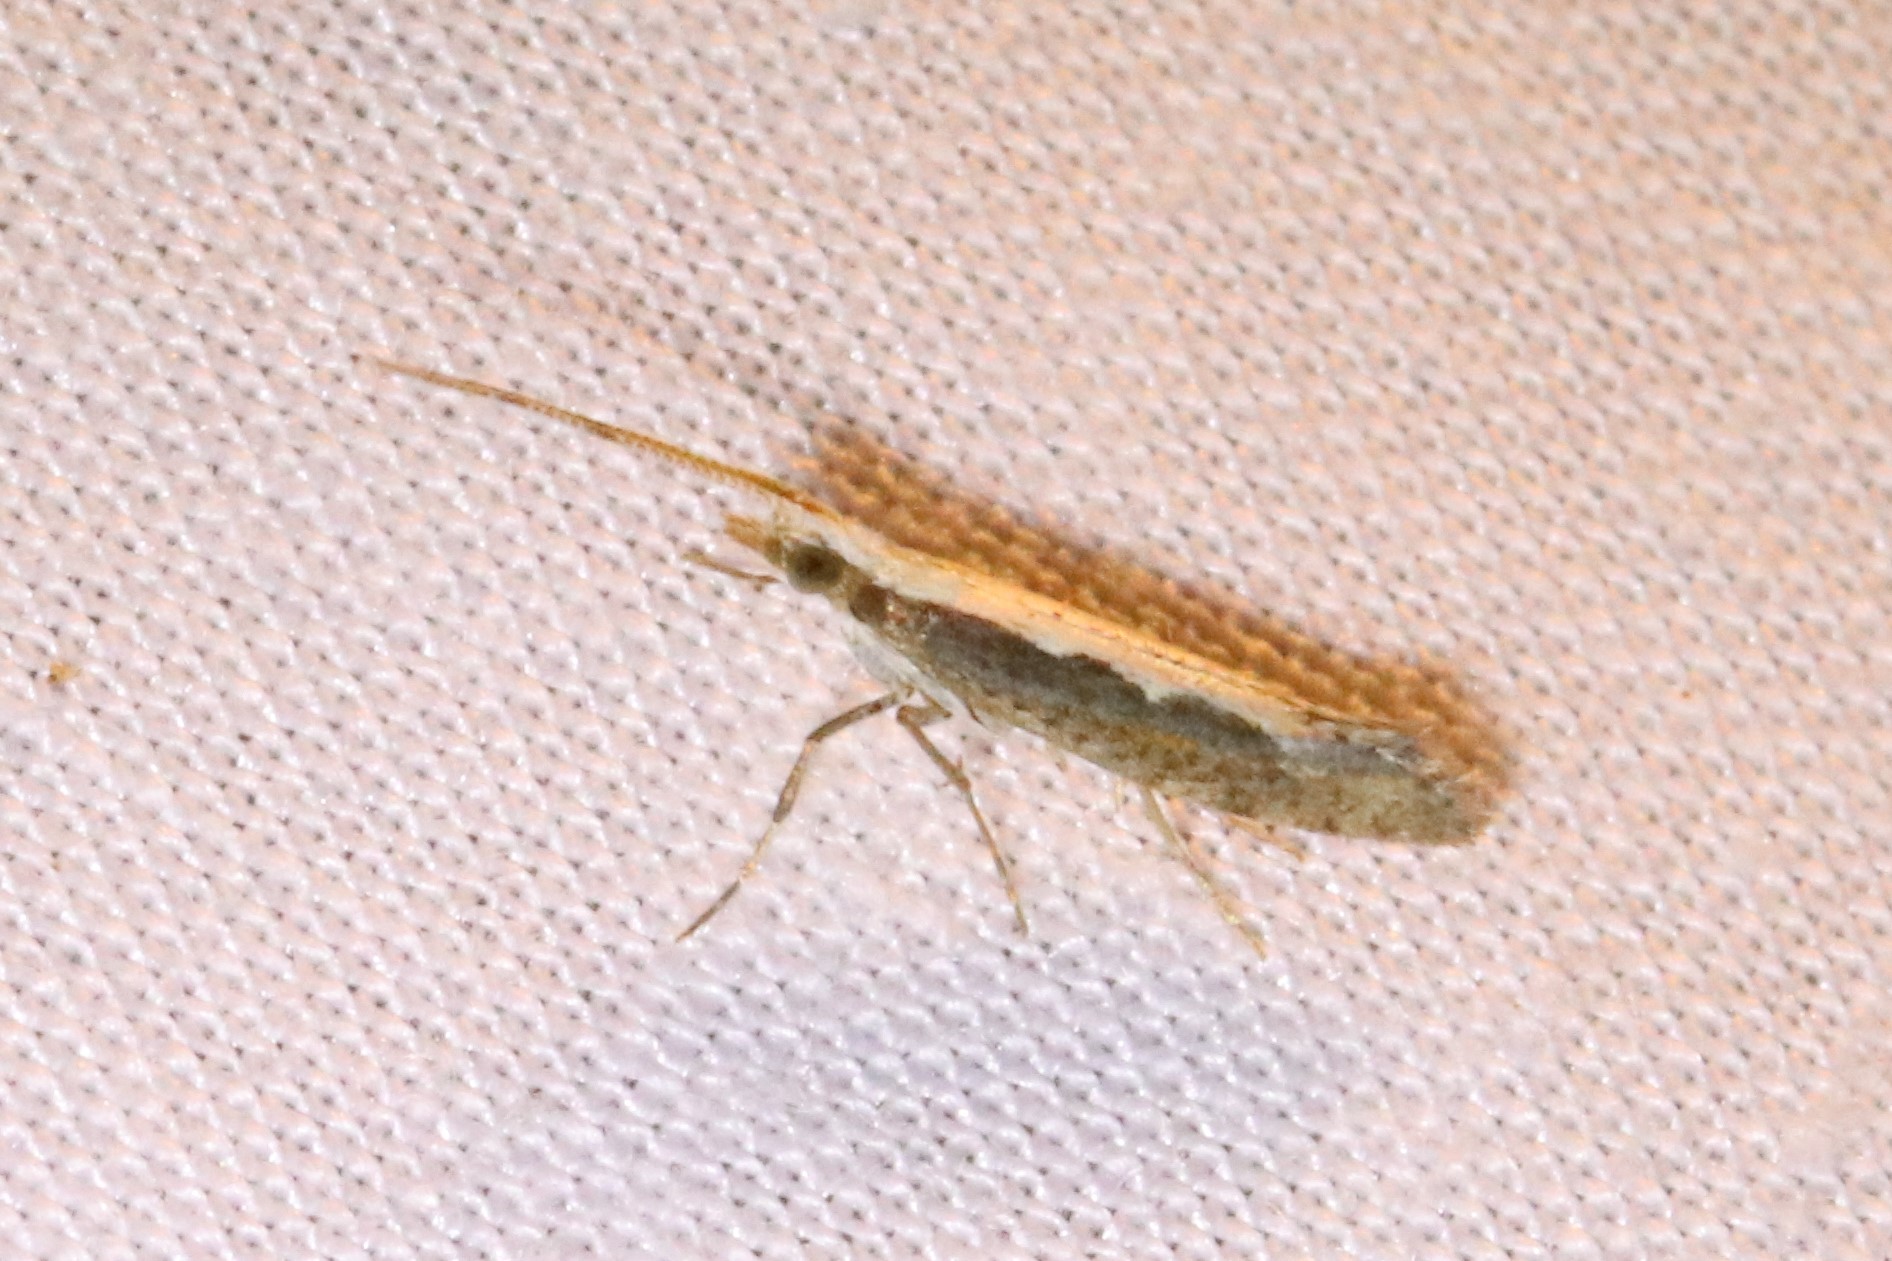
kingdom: Animalia
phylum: Arthropoda
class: Insecta
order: Lepidoptera
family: Plutellidae
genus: Plutella
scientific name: Plutella xylostella
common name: Diamond-back moth
